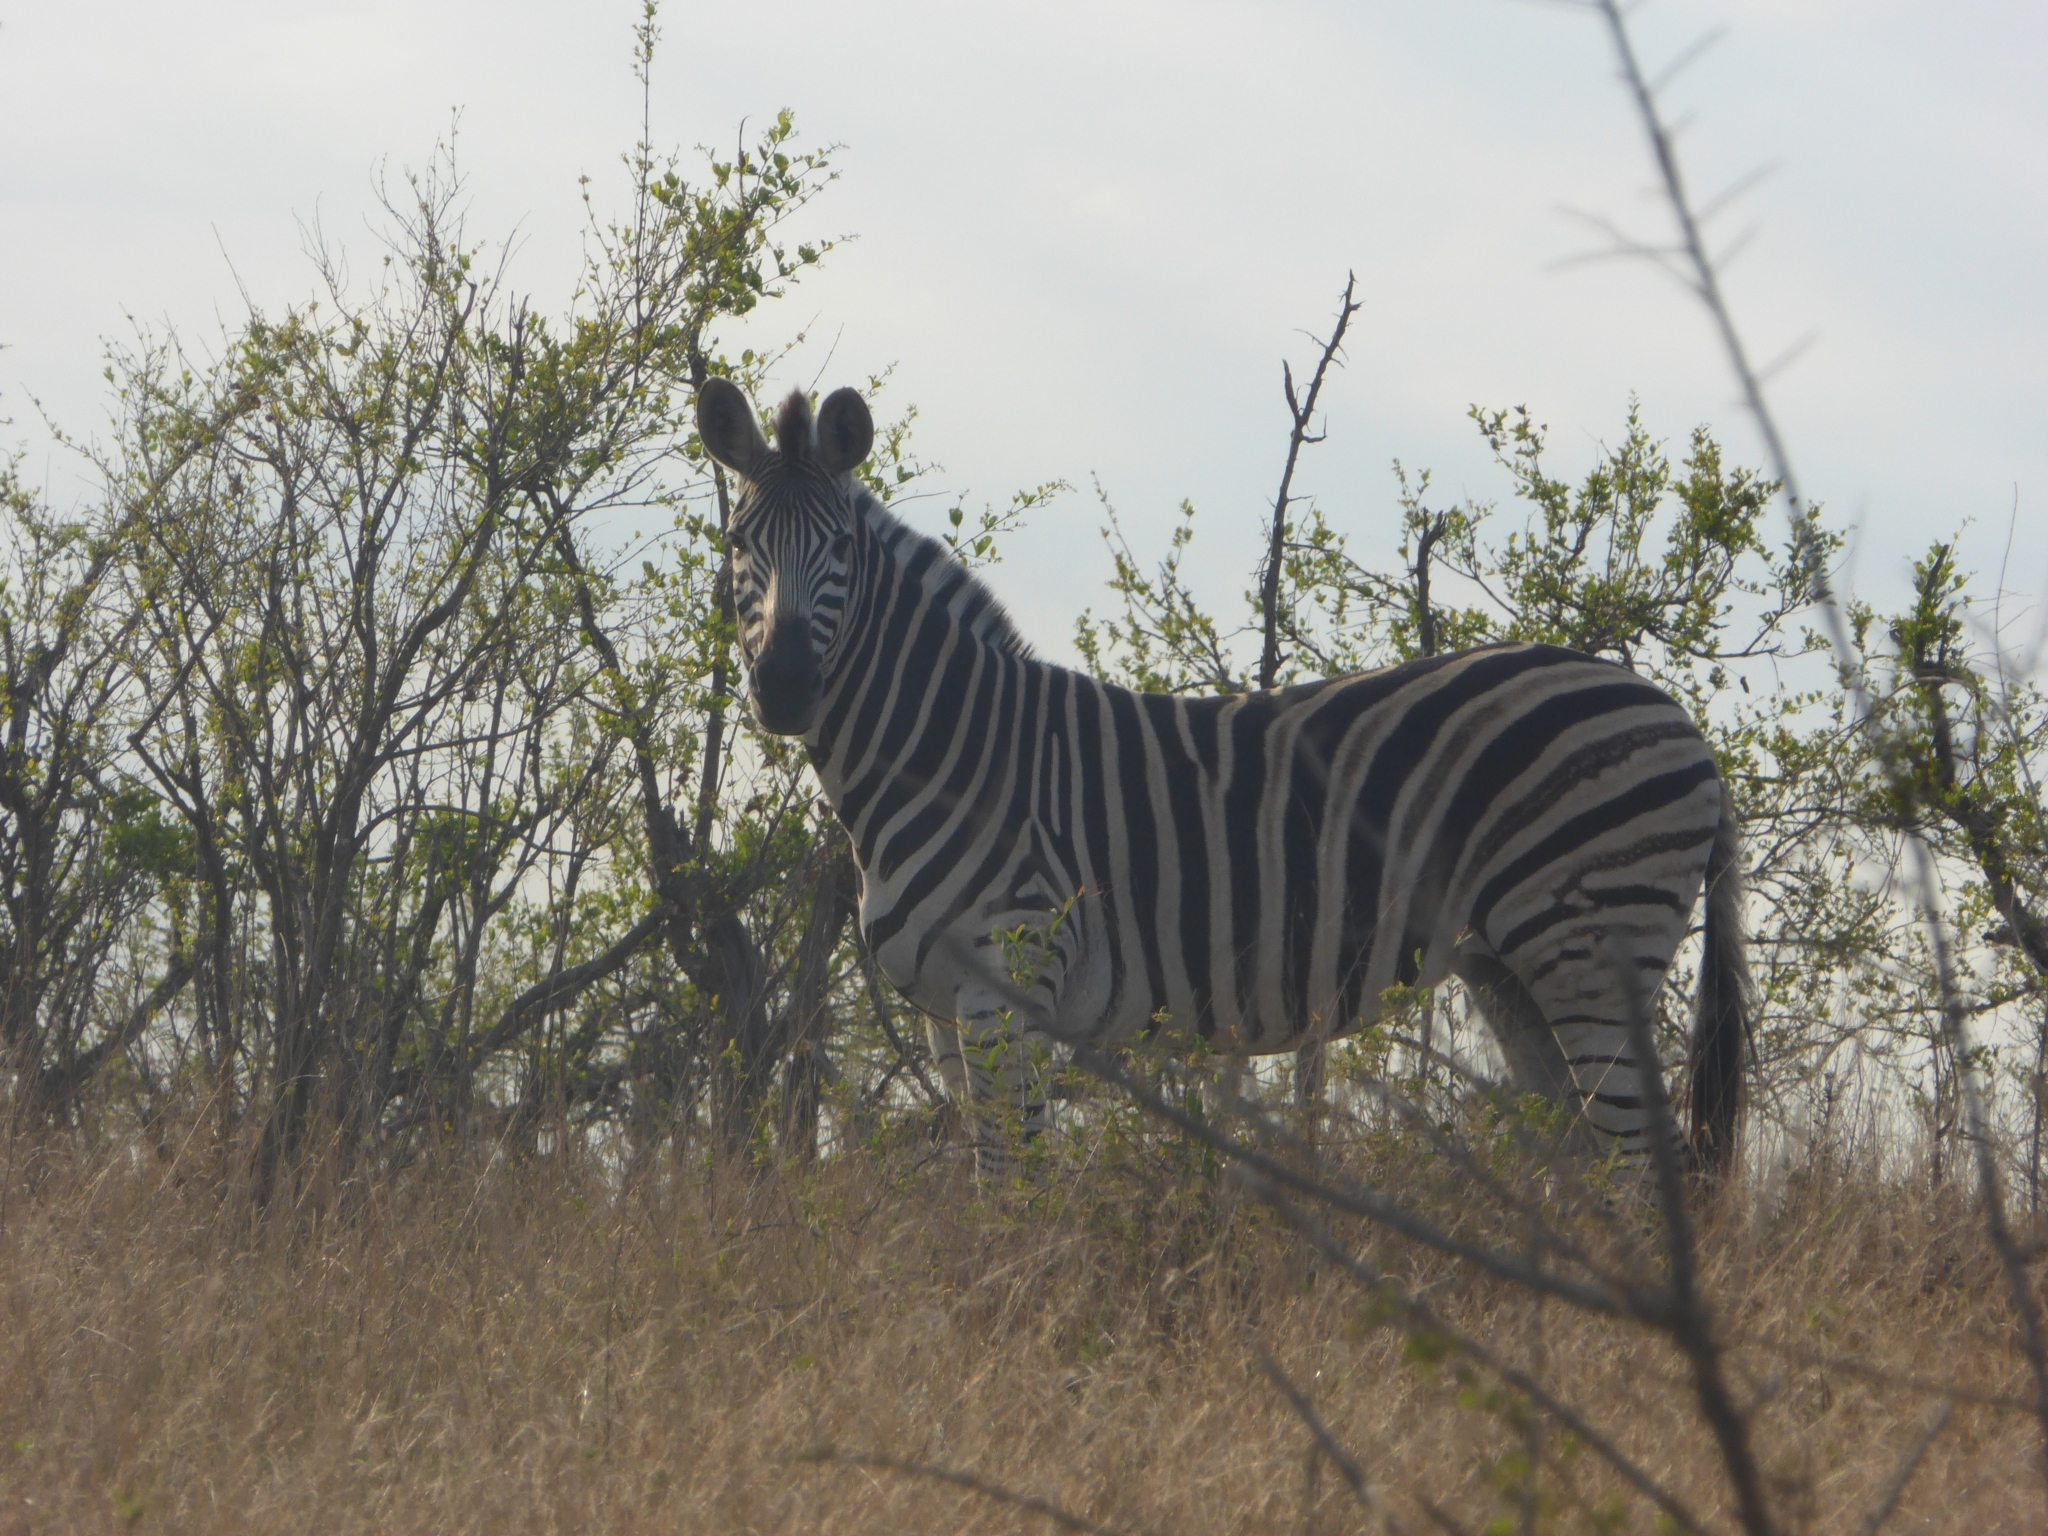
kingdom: Animalia
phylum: Chordata
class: Mammalia
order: Perissodactyla
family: Equidae
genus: Equus
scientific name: Equus quagga
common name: Plains zebra
